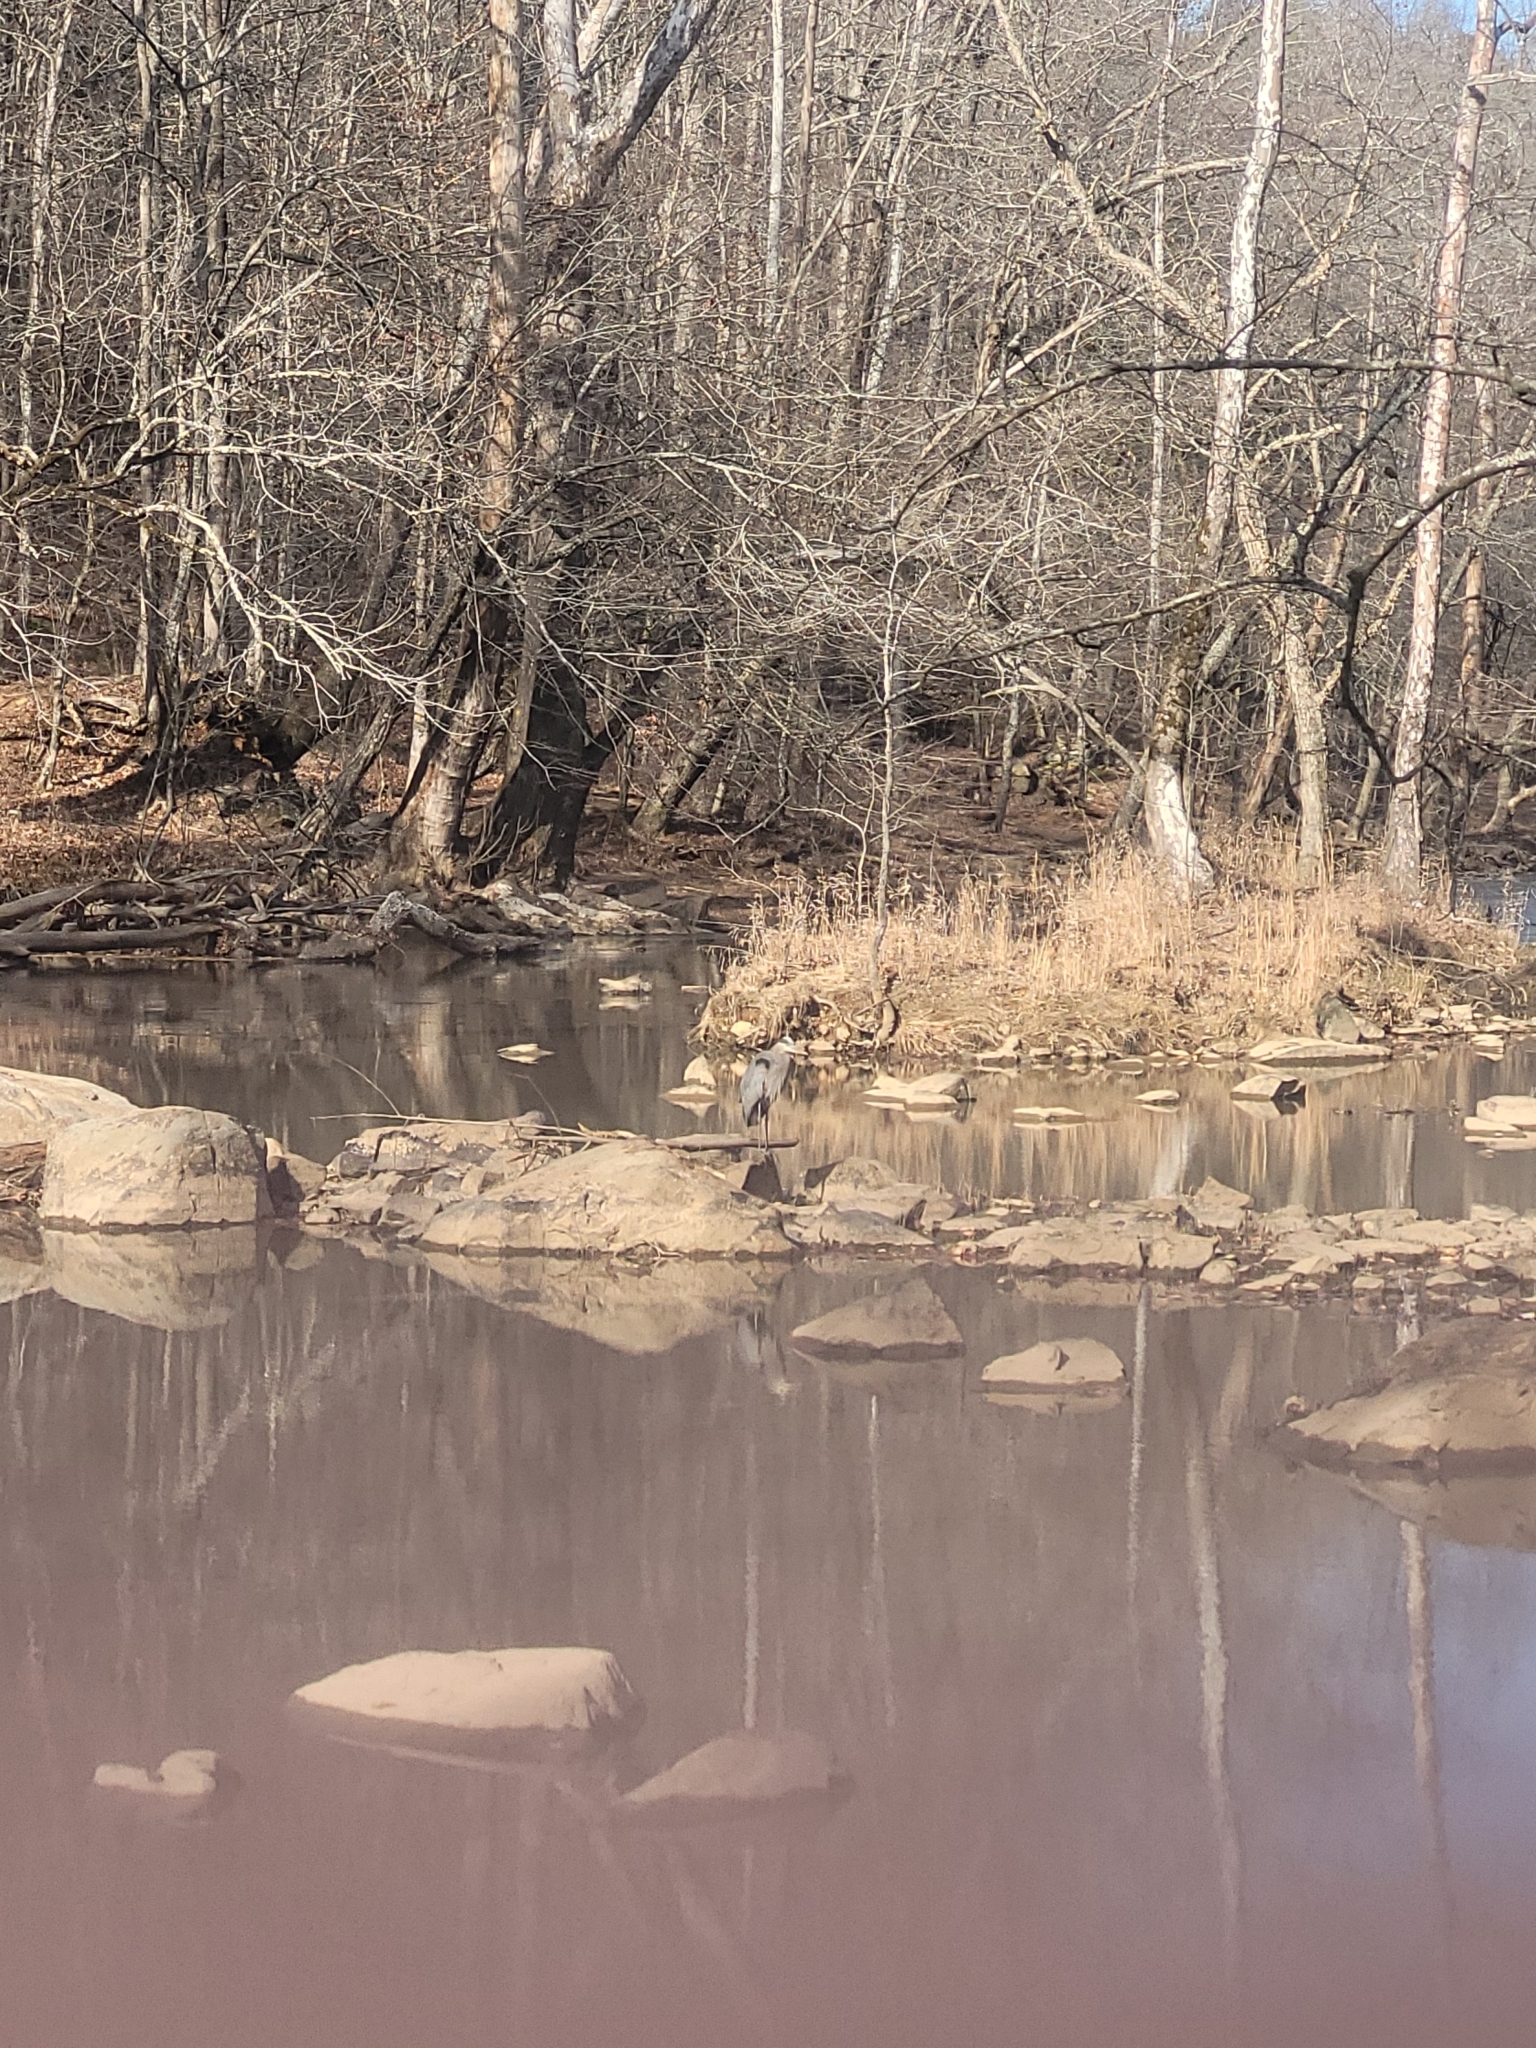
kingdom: Animalia
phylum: Chordata
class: Aves
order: Pelecaniformes
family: Ardeidae
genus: Ardea
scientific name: Ardea herodias
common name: Great blue heron
